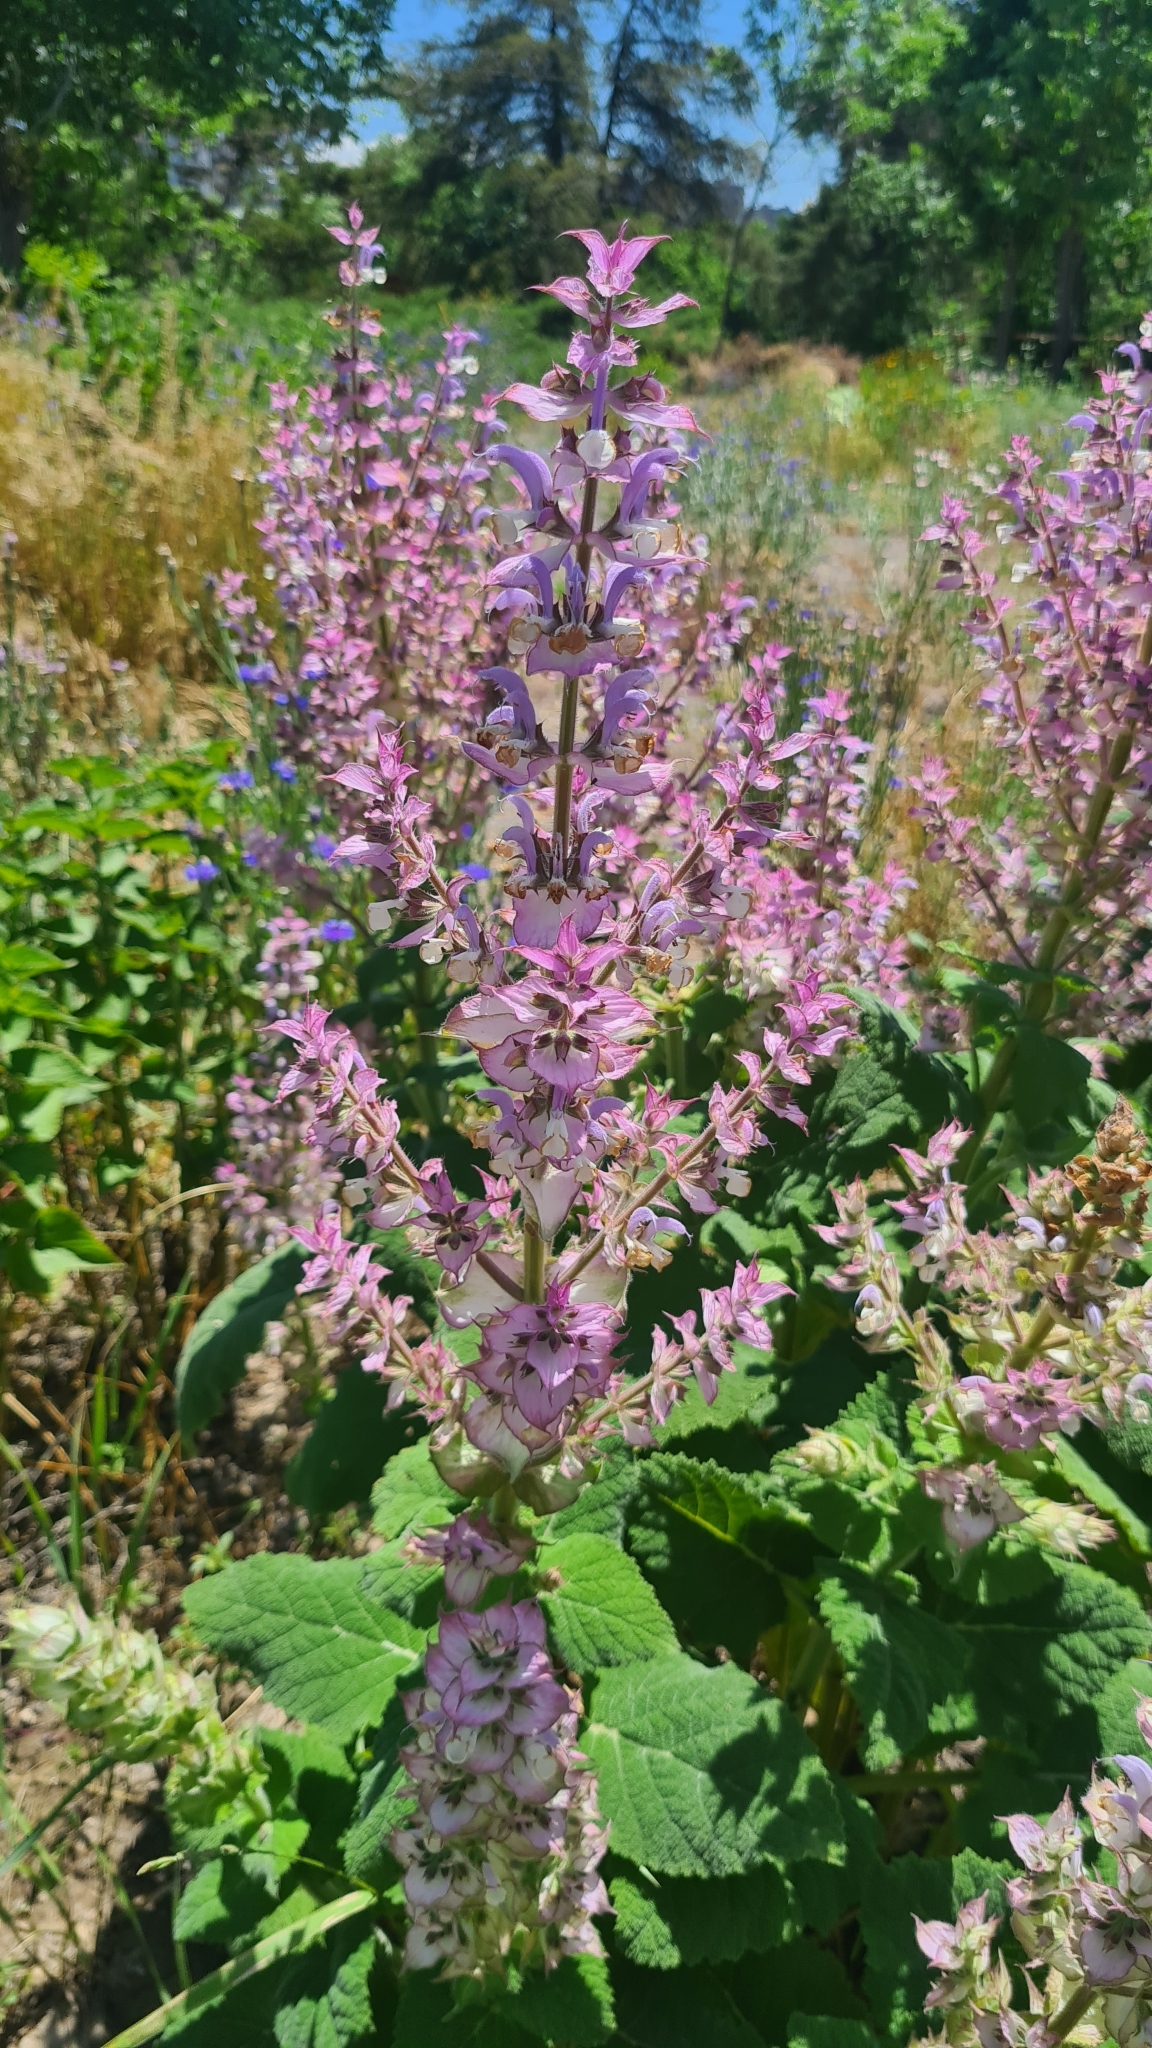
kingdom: Plantae
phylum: Tracheophyta
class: Magnoliopsida
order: Lamiales
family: Lamiaceae
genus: Salvia
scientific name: Salvia sclarea
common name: Clary
